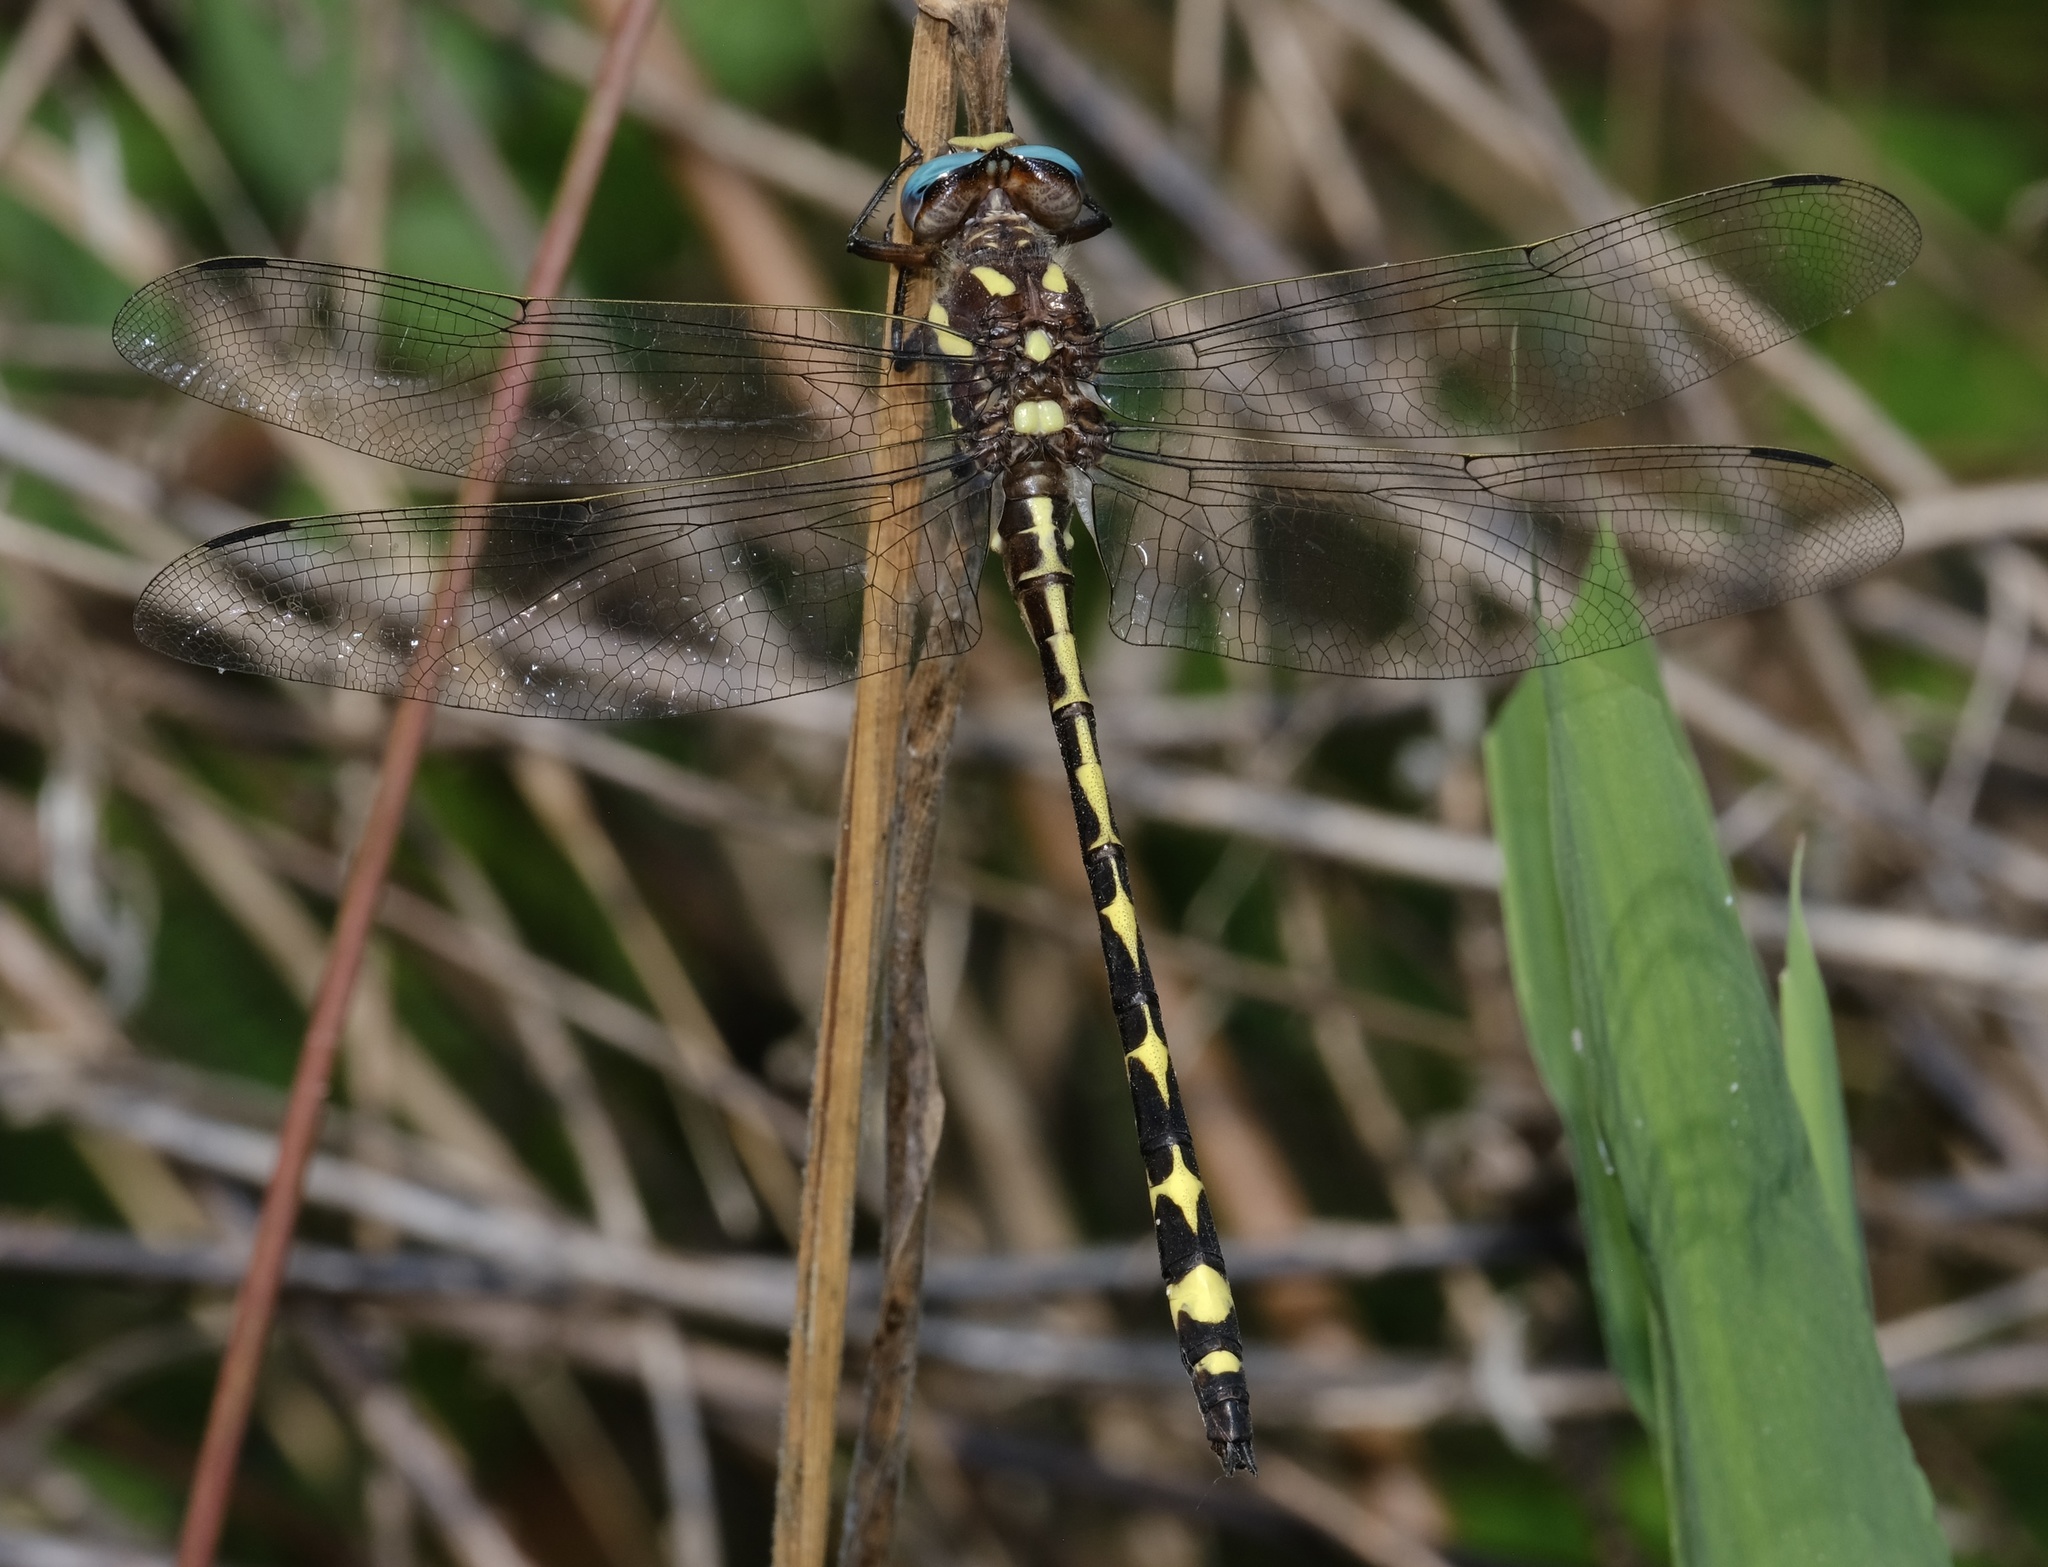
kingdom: Animalia
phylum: Arthropoda
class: Insecta
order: Odonata
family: Cordulegastridae
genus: Cordulegaster
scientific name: Cordulegaster obliqua
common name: Arrowhead spiketail
